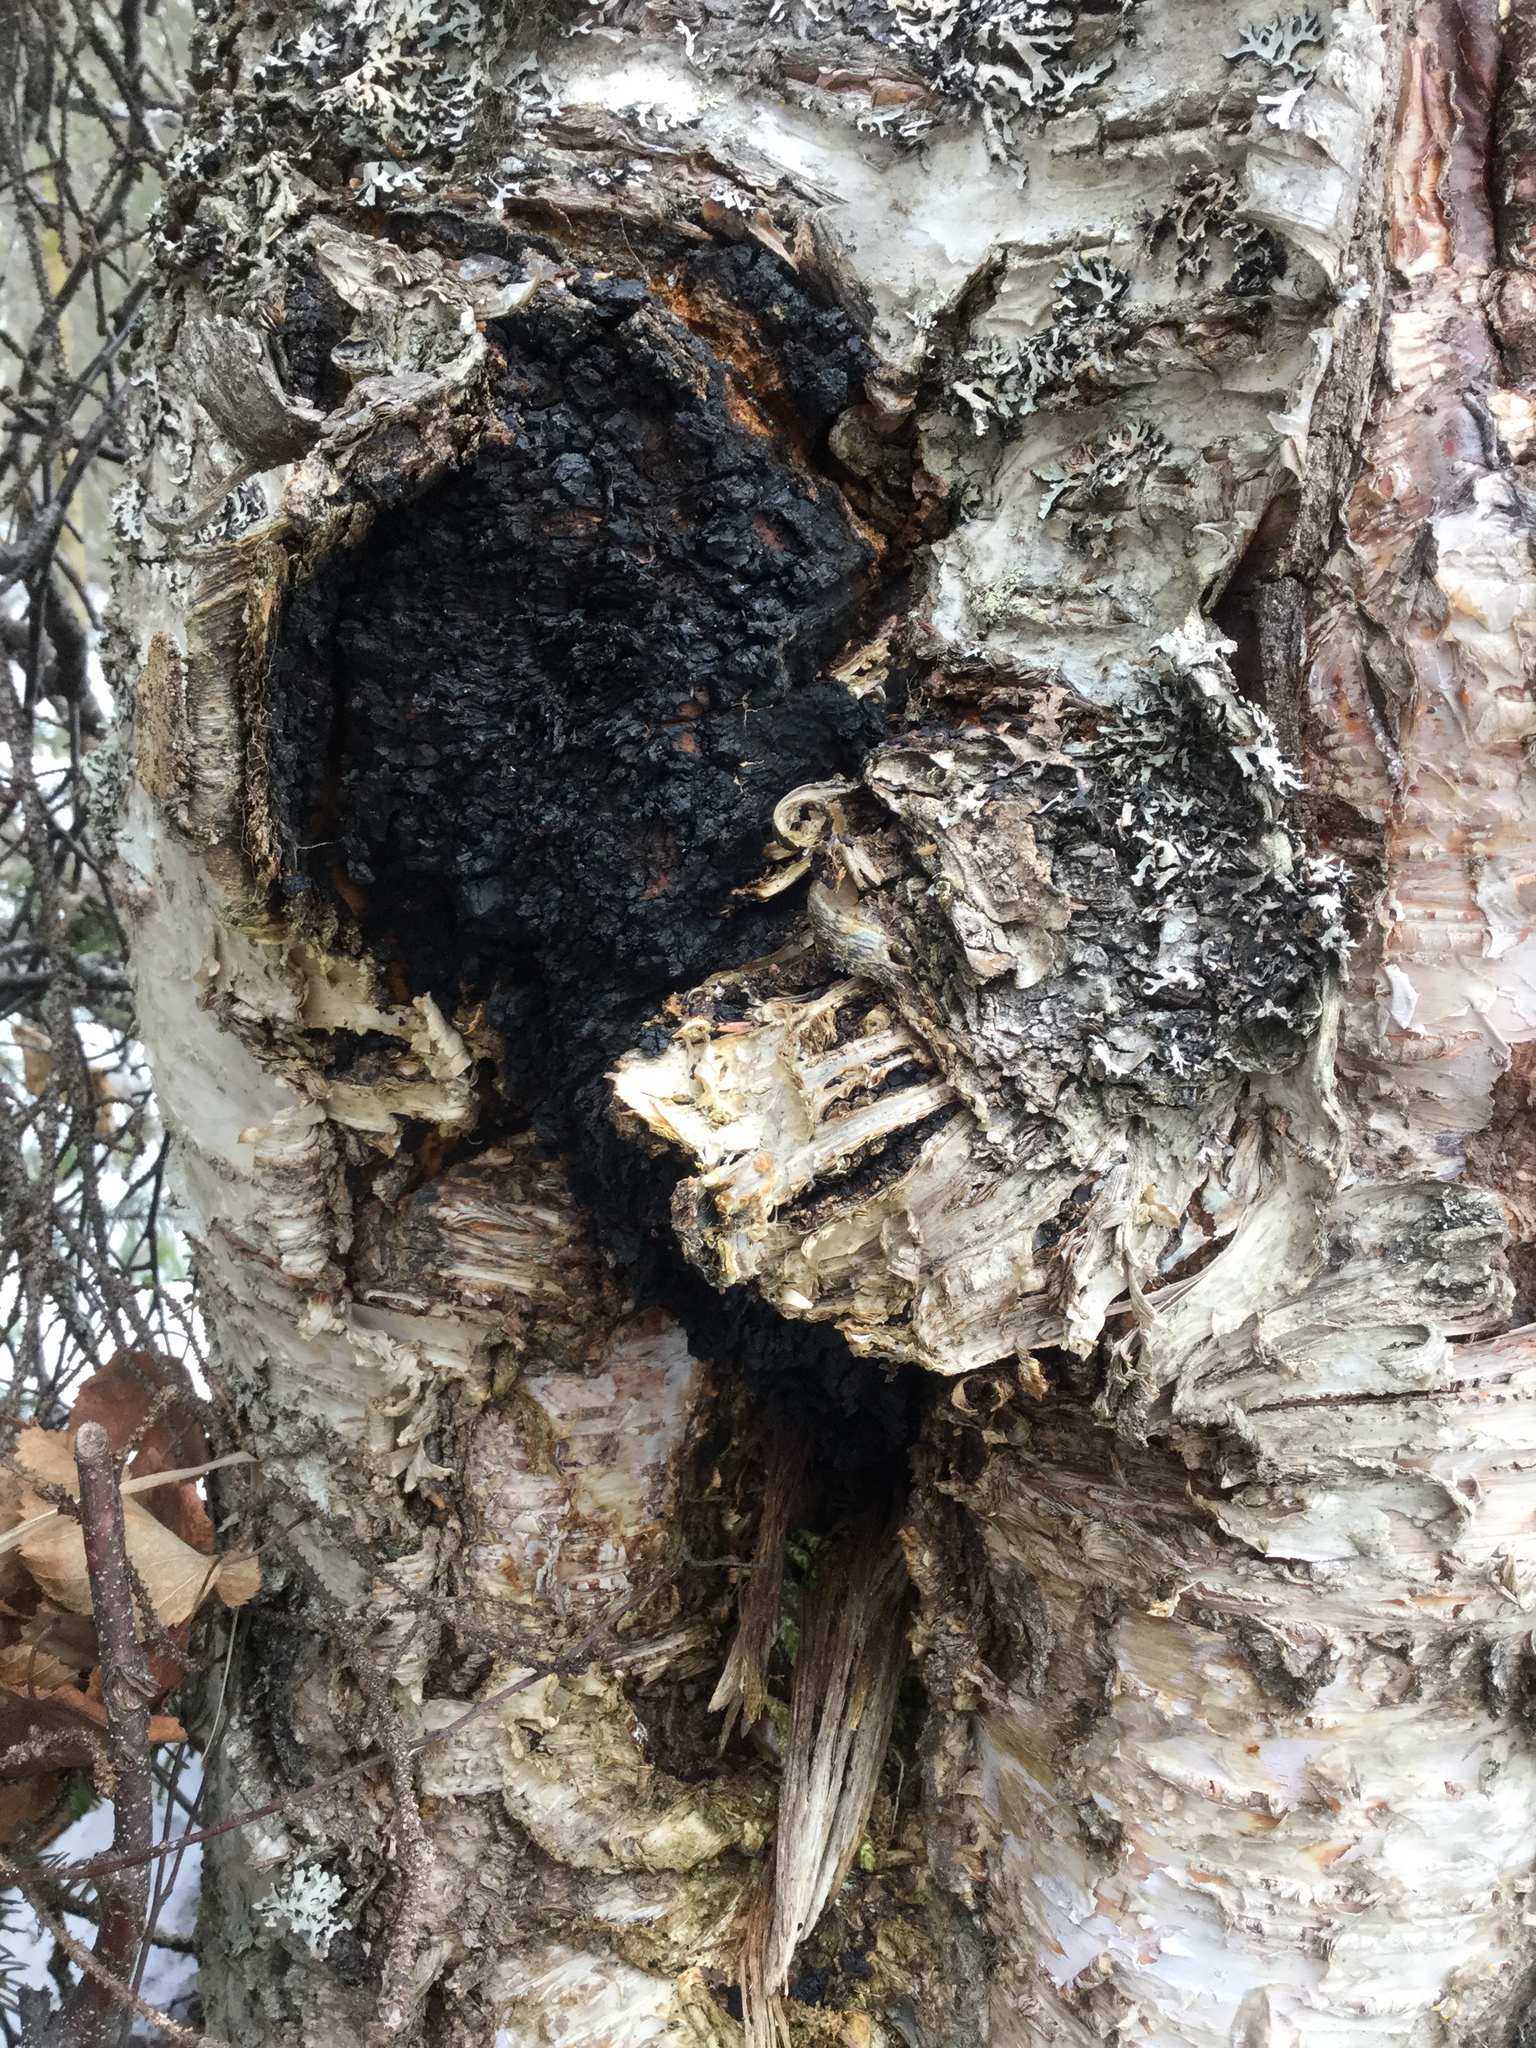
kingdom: Fungi
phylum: Basidiomycota
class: Agaricomycetes
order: Hymenochaetales
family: Hymenochaetaceae
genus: Inonotus
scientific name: Inonotus obliquus
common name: Chaga
